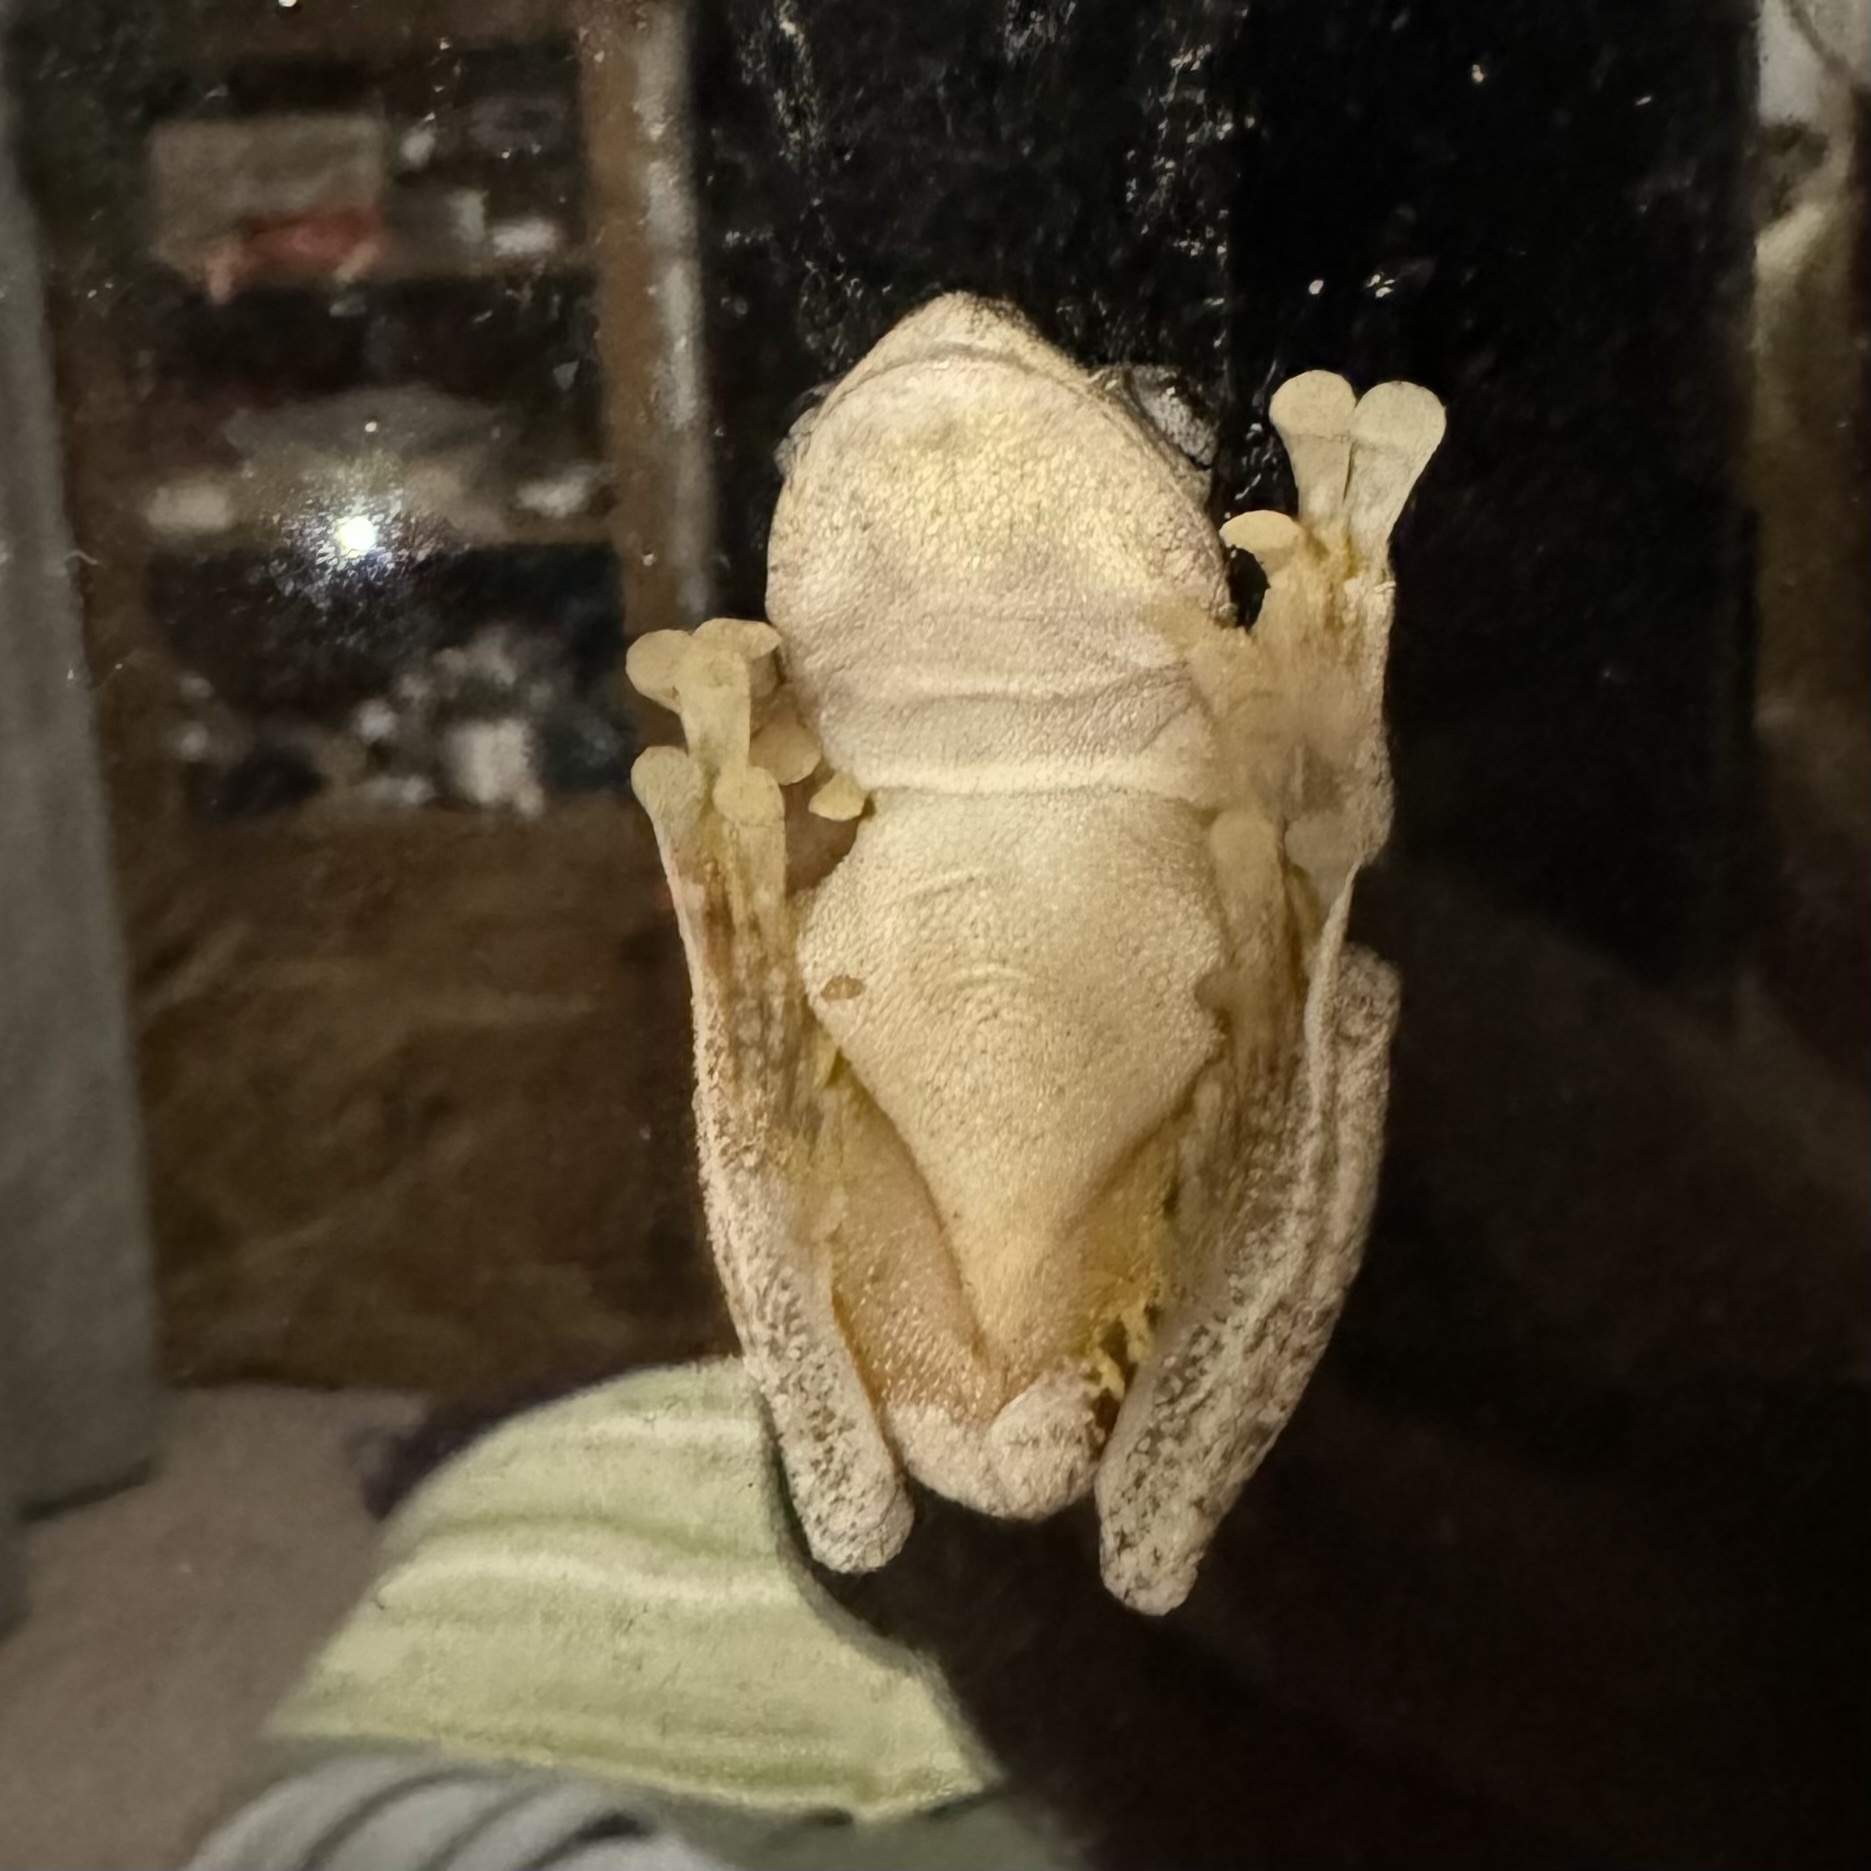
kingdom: Animalia
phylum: Chordata
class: Amphibia
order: Anura
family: Pelodryadidae
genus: Litoria
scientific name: Litoria peronii
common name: Emerald spotted treefrog
